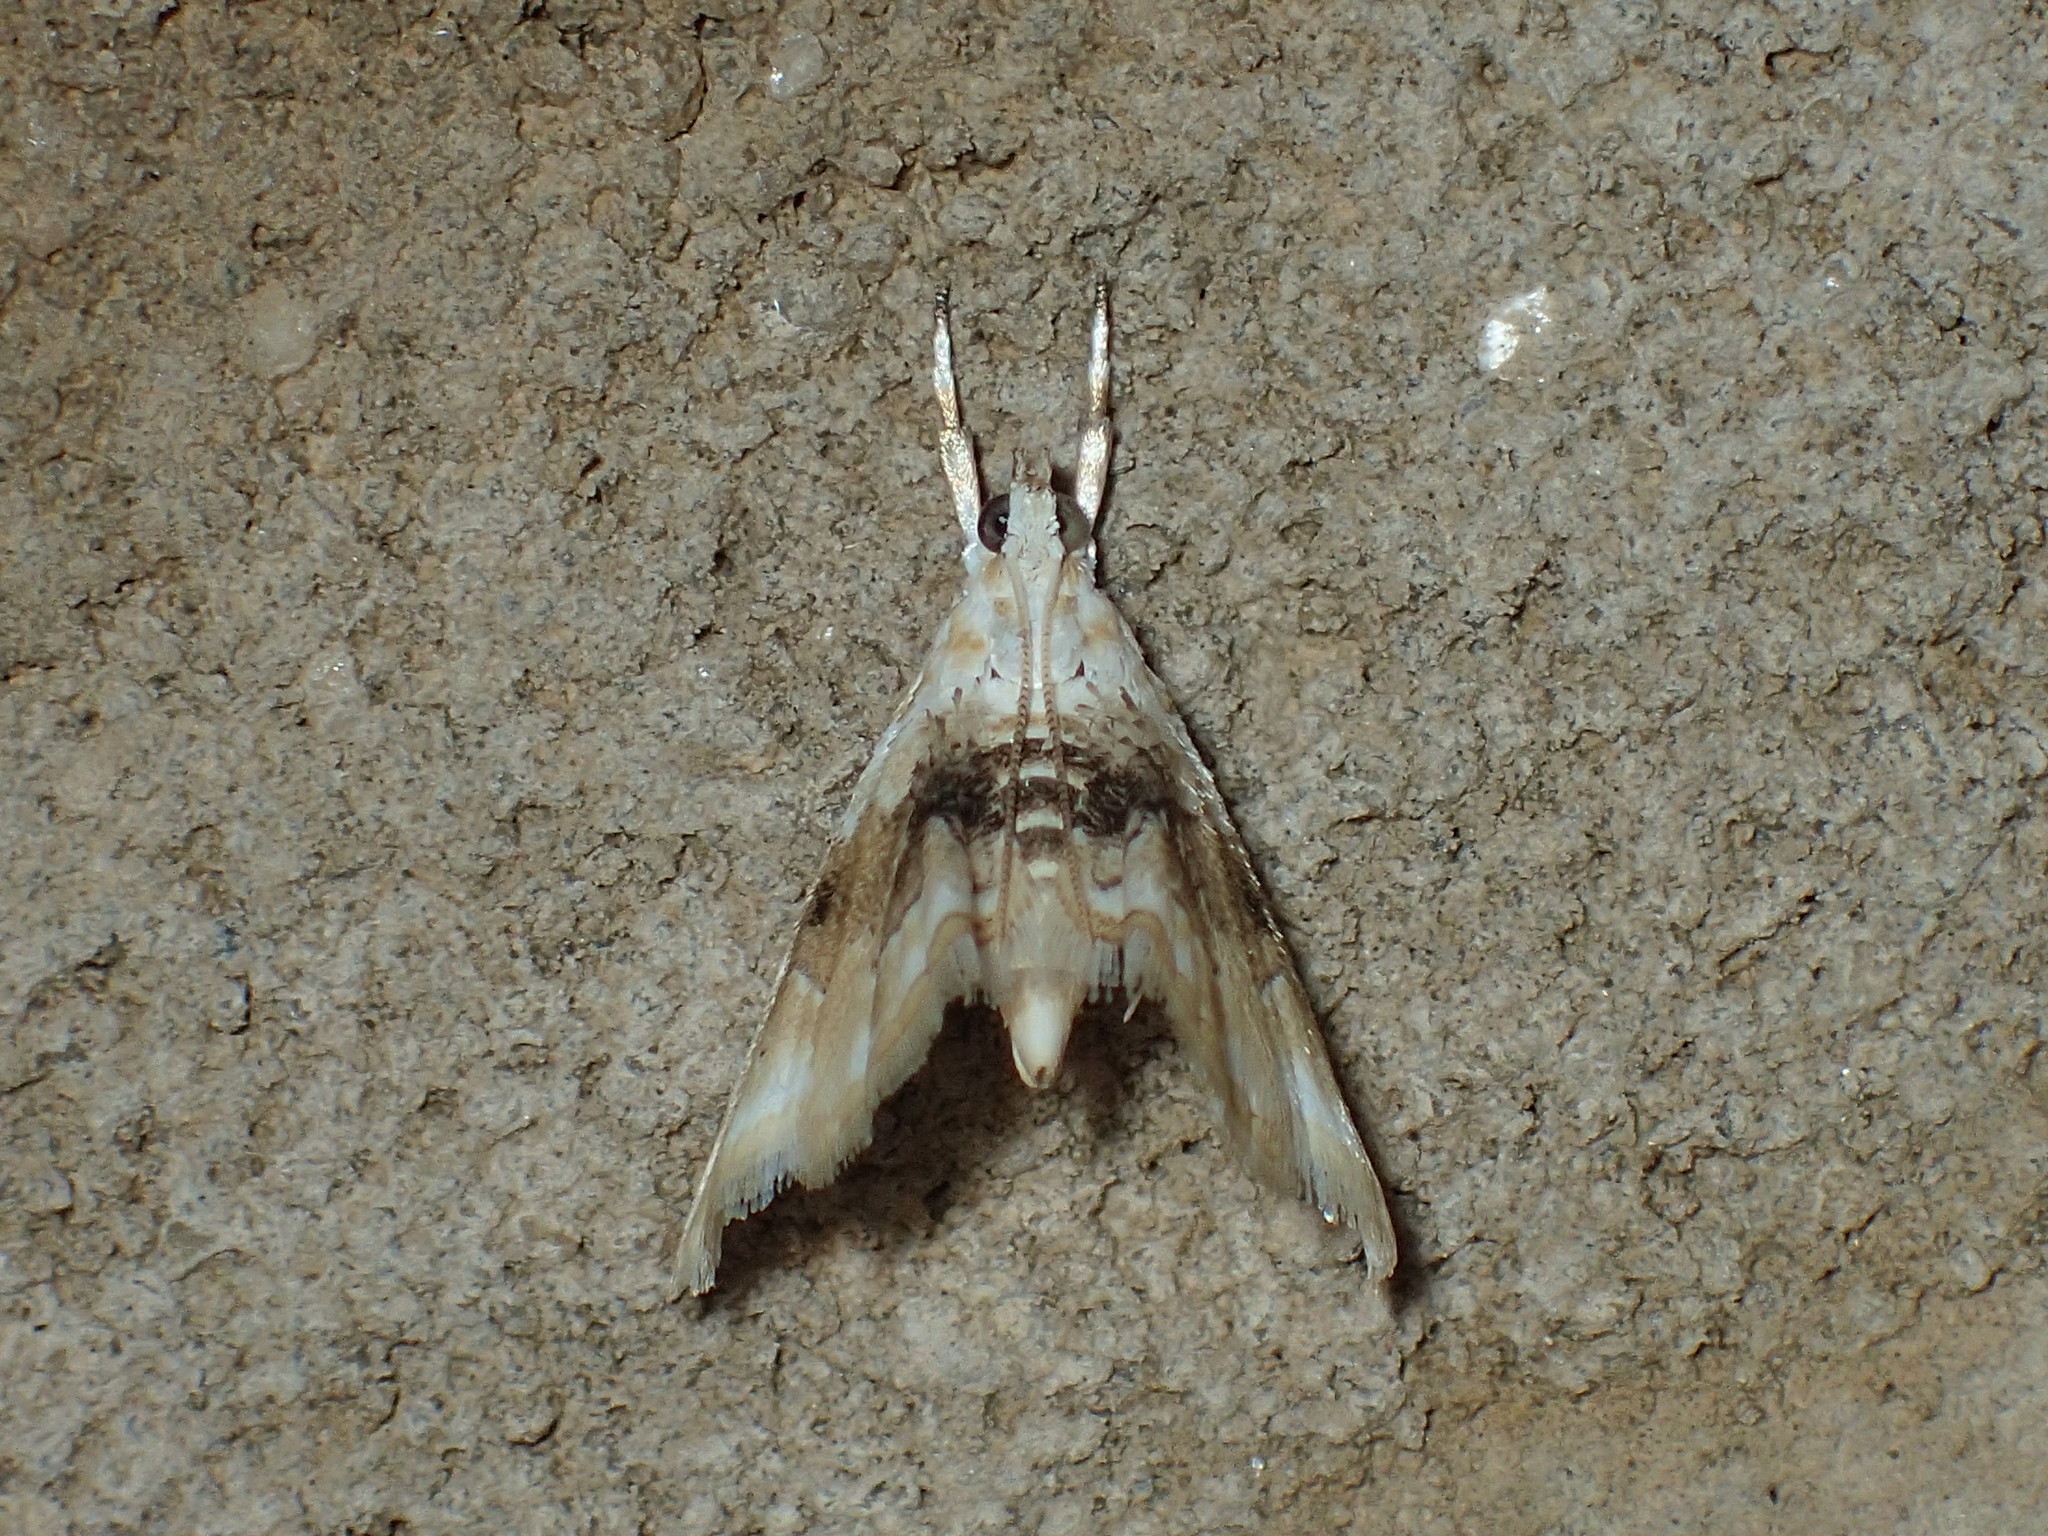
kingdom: Animalia
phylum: Arthropoda
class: Insecta
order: Lepidoptera
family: Crambidae
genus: Lipocosma
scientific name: Lipocosma sicalis
